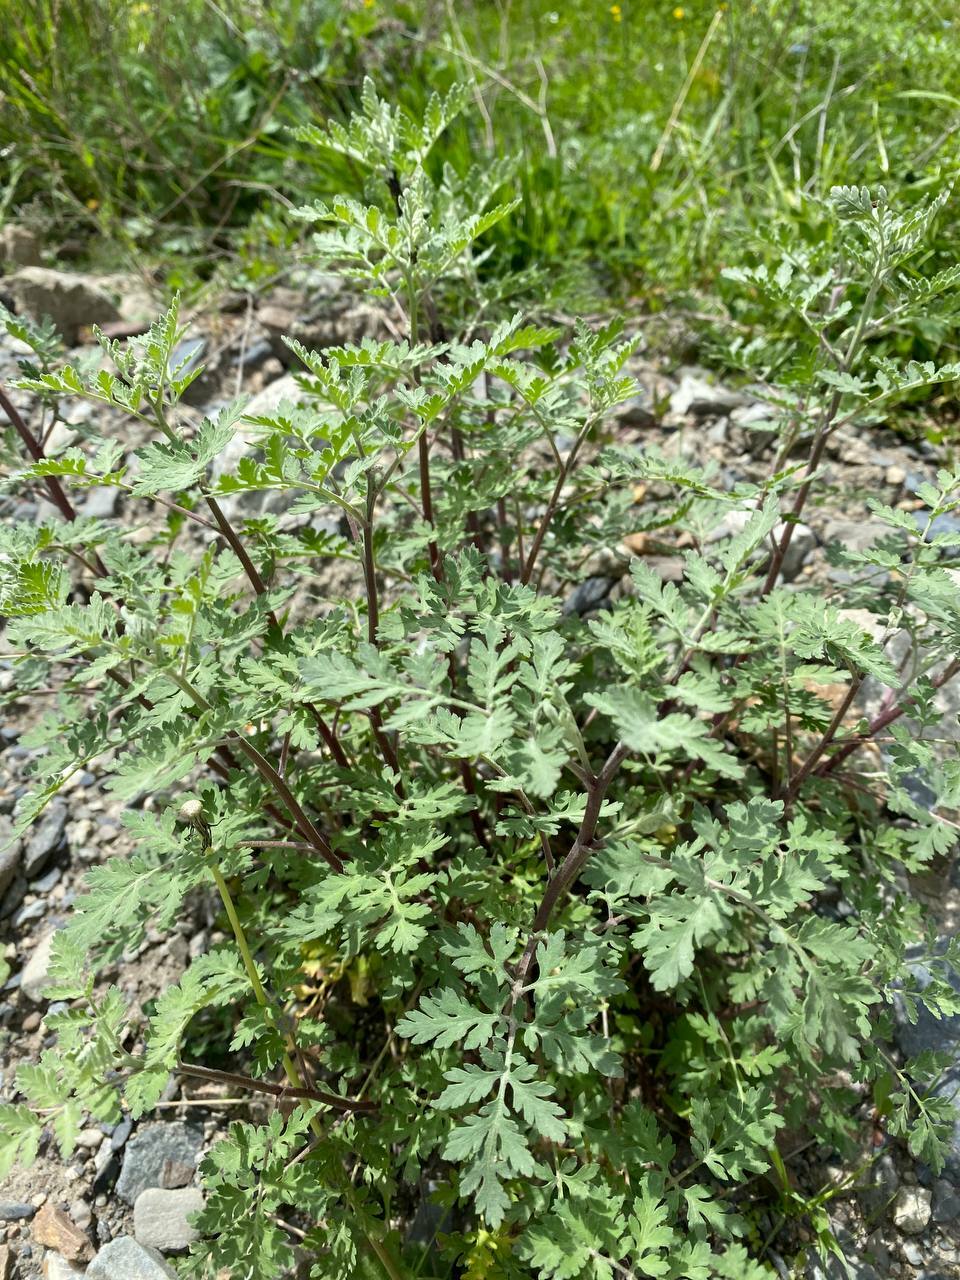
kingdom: Plantae
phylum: Tracheophyta
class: Magnoliopsida
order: Asterales
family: Asteraceae
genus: Tanacetum
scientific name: Tanacetum partheniifolium
